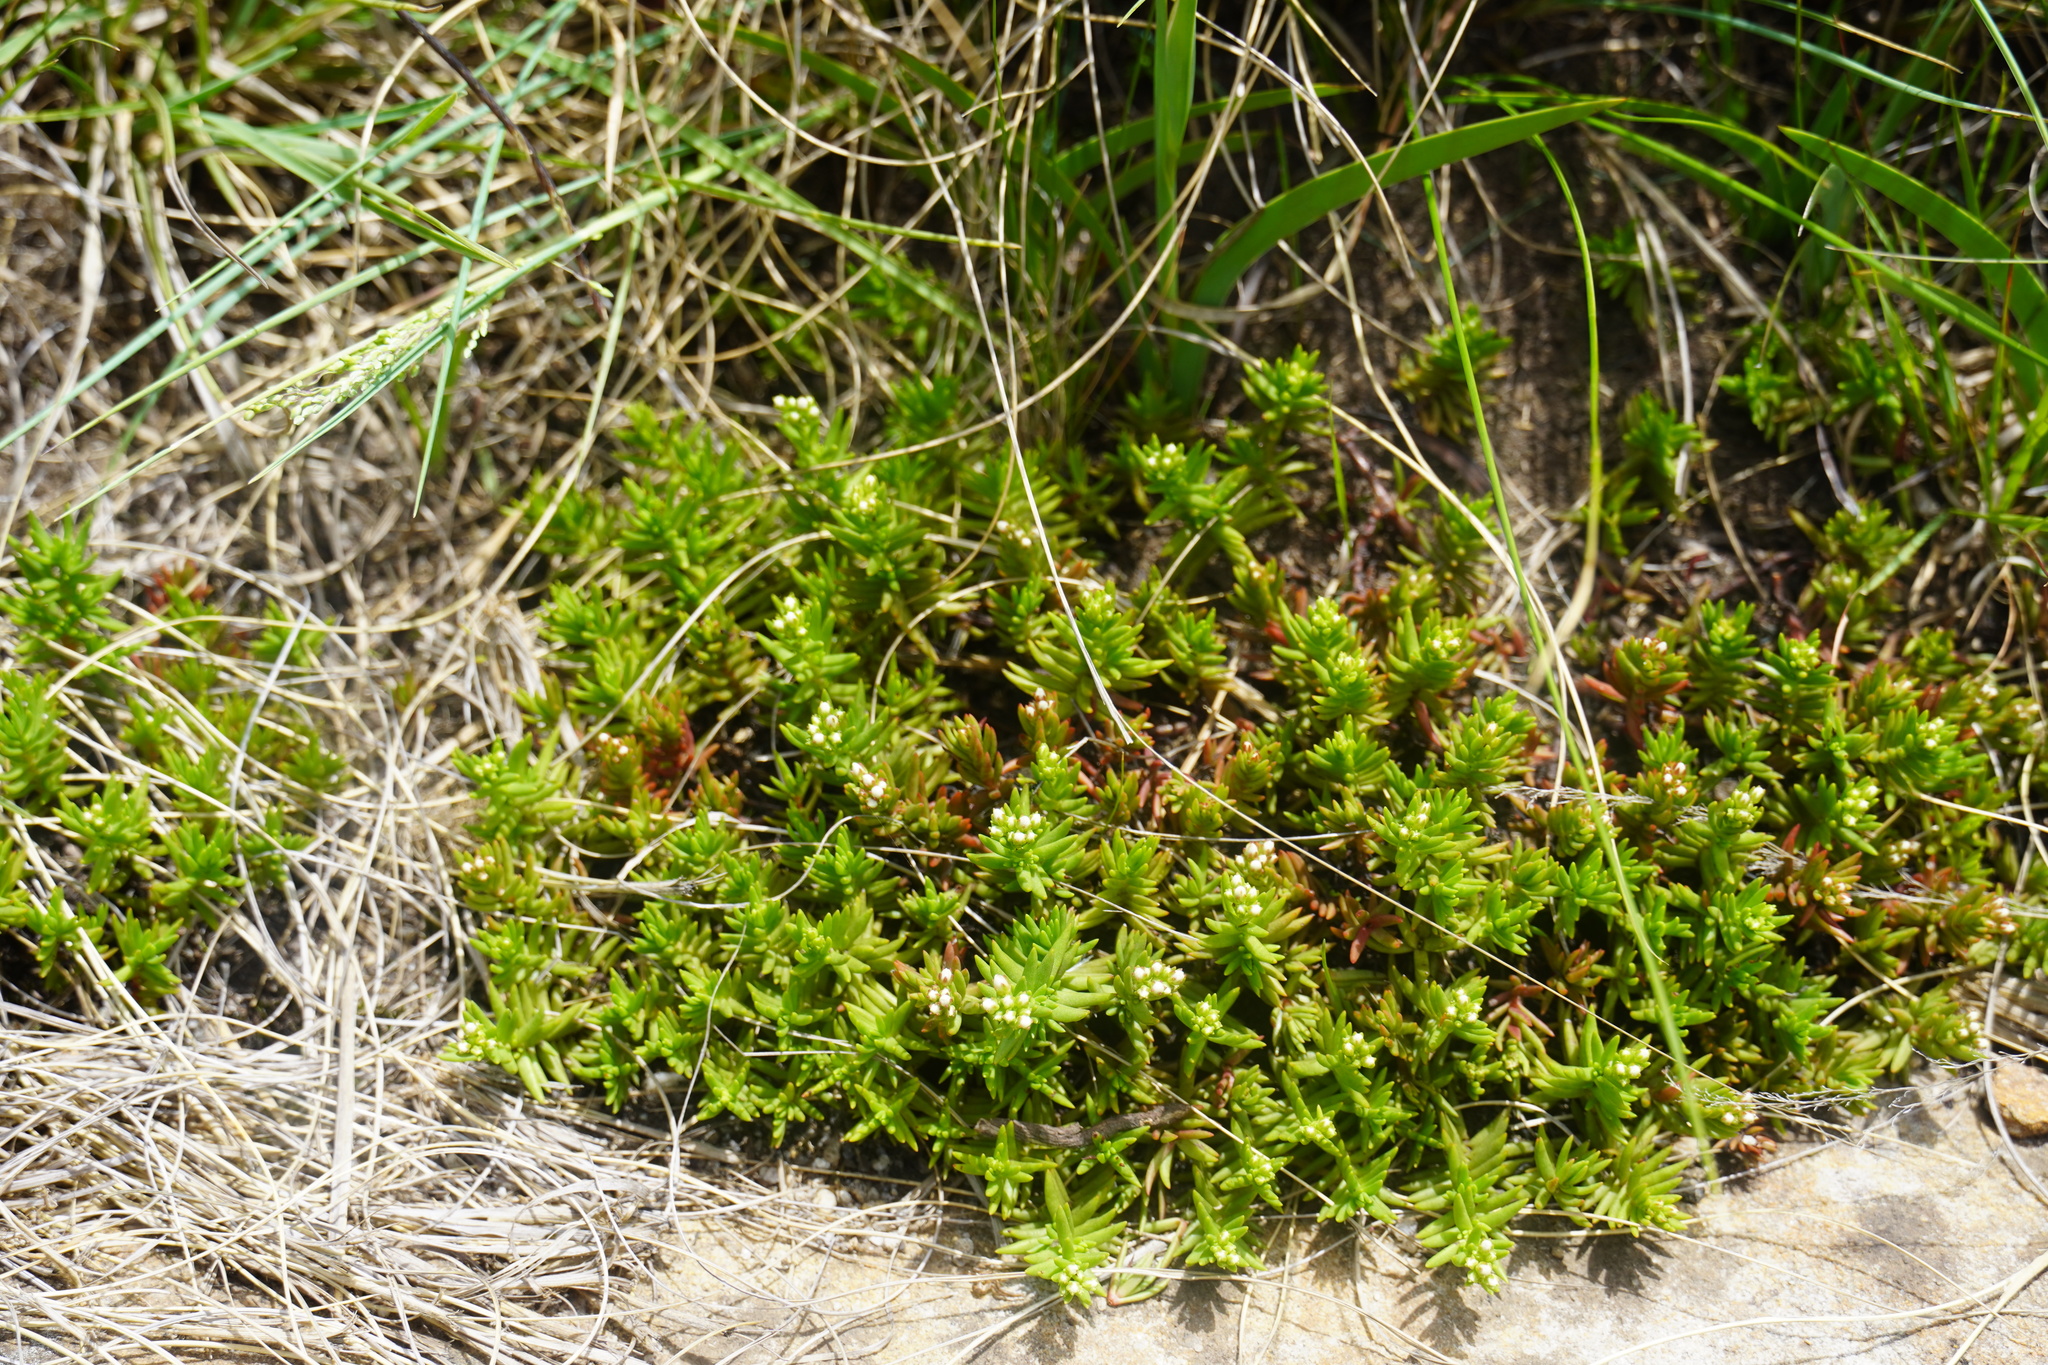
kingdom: Plantae
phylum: Tracheophyta
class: Magnoliopsida
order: Saxifragales
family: Crassulaceae
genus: Crassula
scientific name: Crassula dependens
